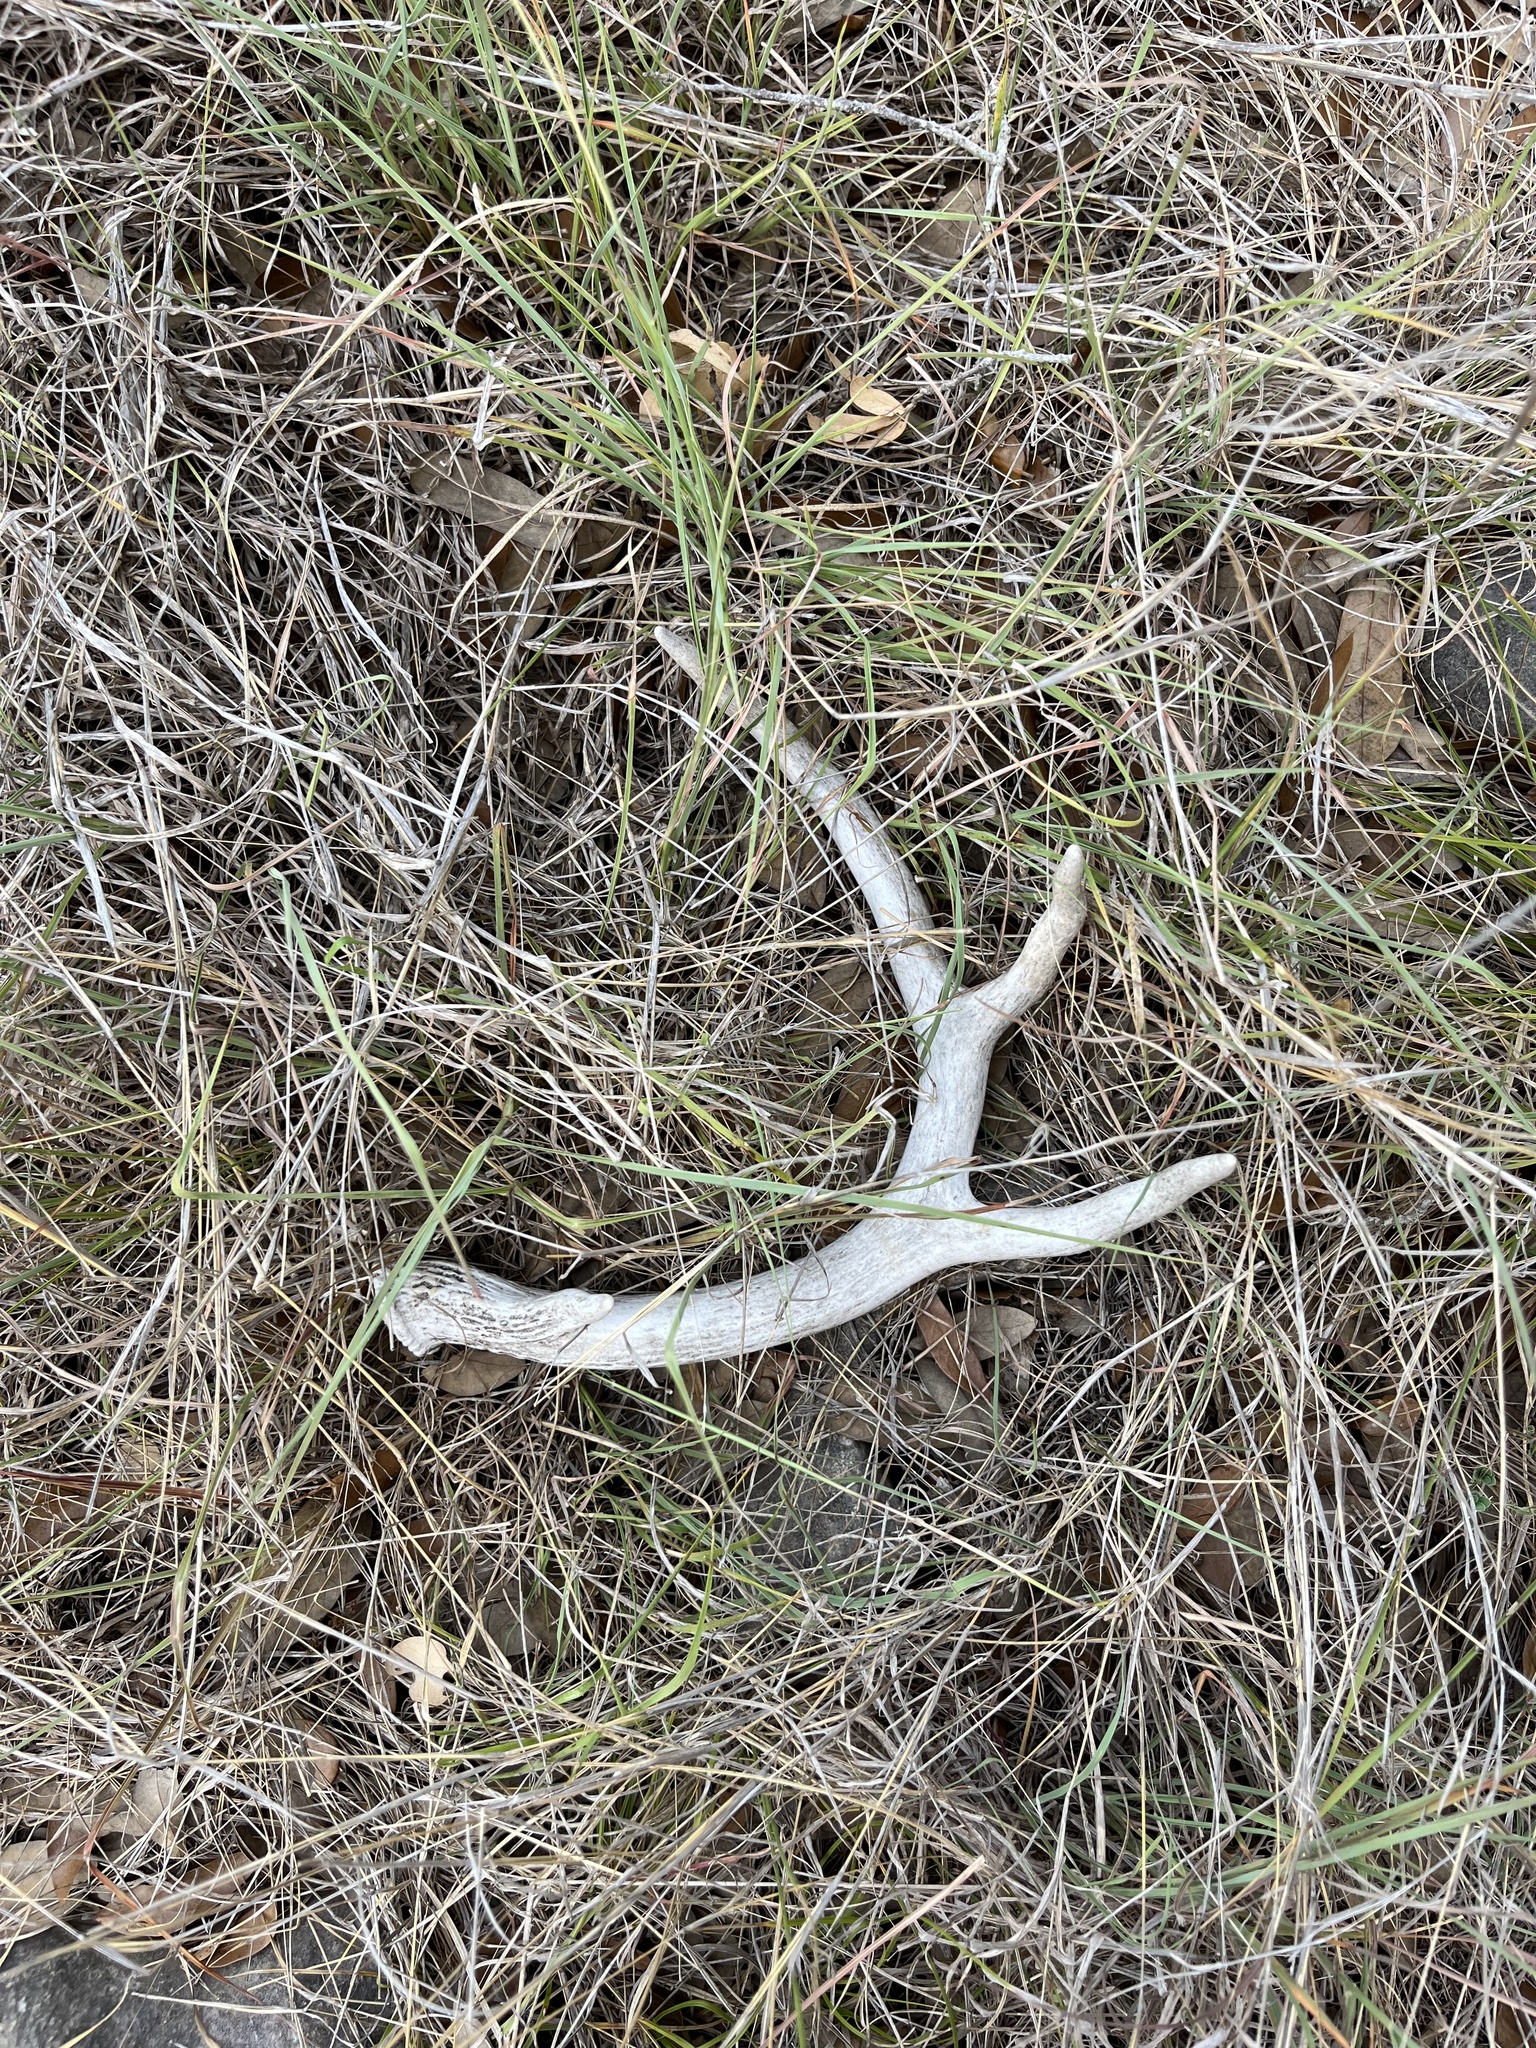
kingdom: Animalia
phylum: Chordata
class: Mammalia
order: Artiodactyla
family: Cervidae
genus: Odocoileus
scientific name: Odocoileus virginianus
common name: White-tailed deer
